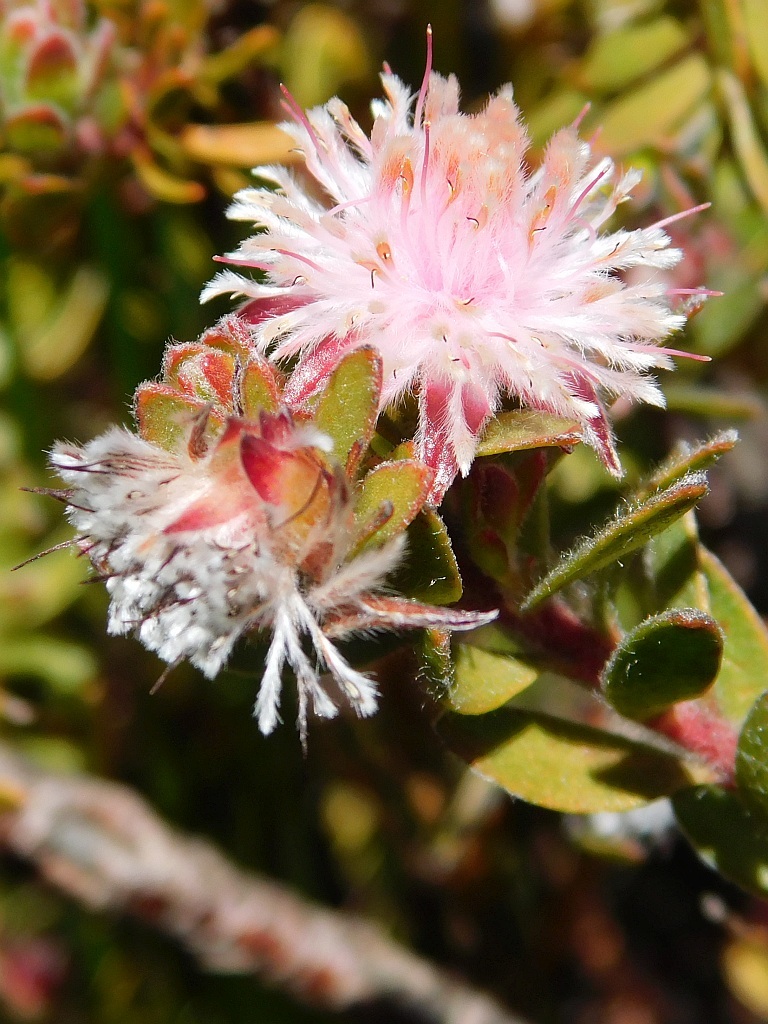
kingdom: Plantae
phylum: Tracheophyta
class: Magnoliopsida
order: Proteales
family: Proteaceae
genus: Diastella
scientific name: Diastella divaricata
